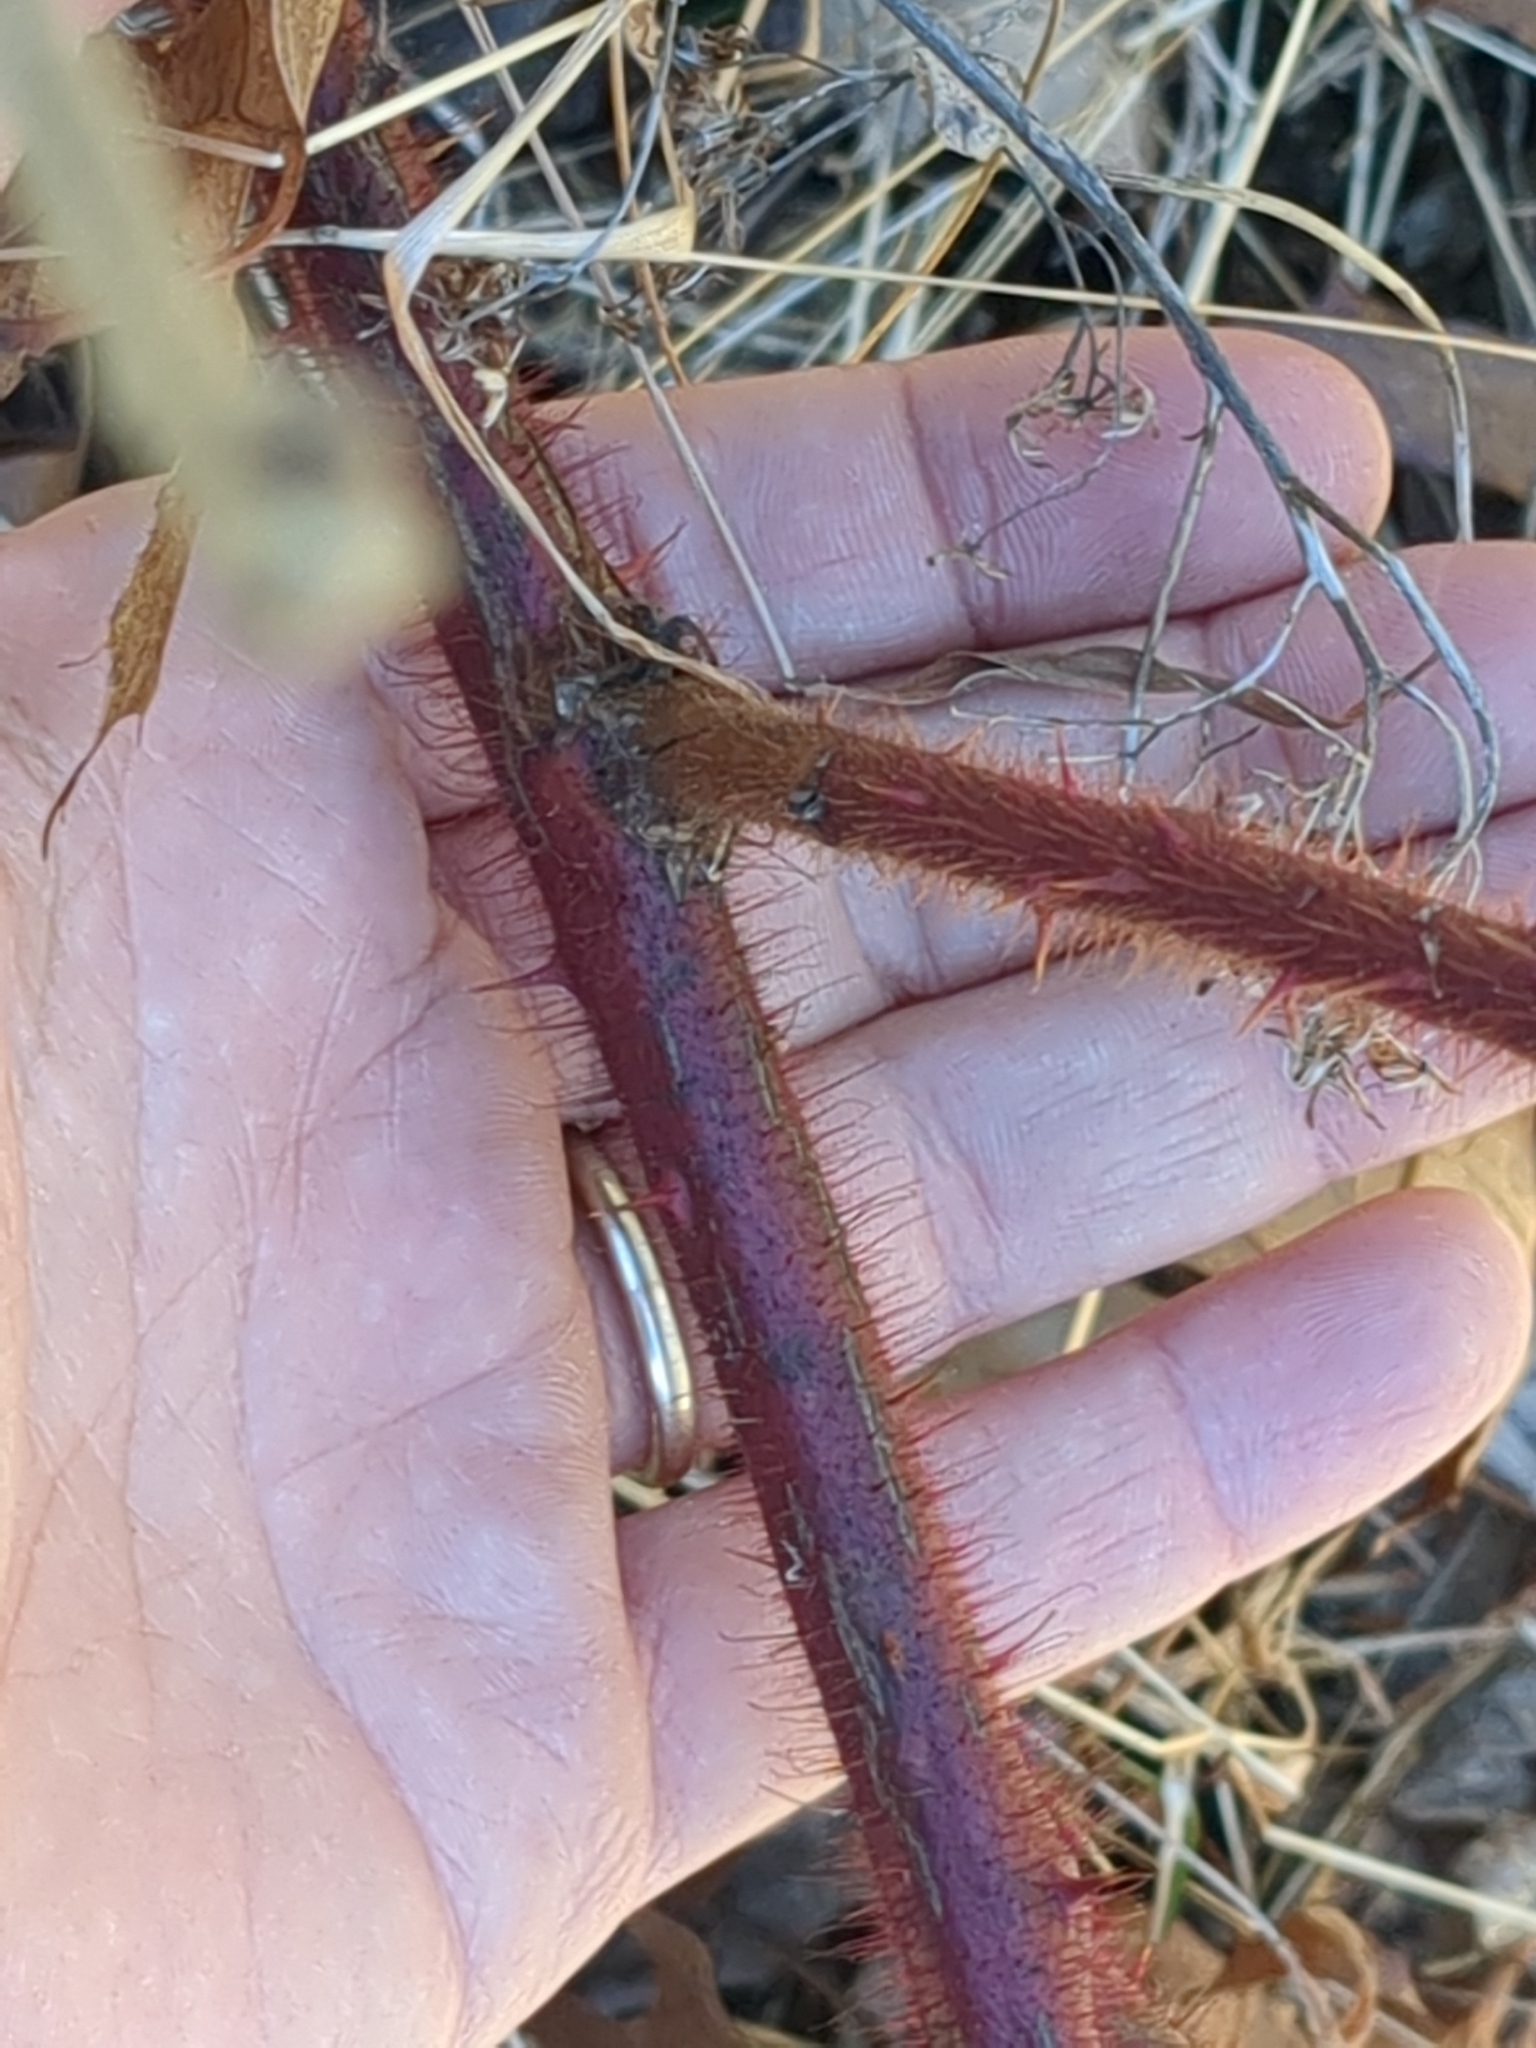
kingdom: Plantae
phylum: Tracheophyta
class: Magnoliopsida
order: Rosales
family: Rosaceae
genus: Rubus
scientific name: Rubus phoenicolasius
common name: Japanese wineberry
